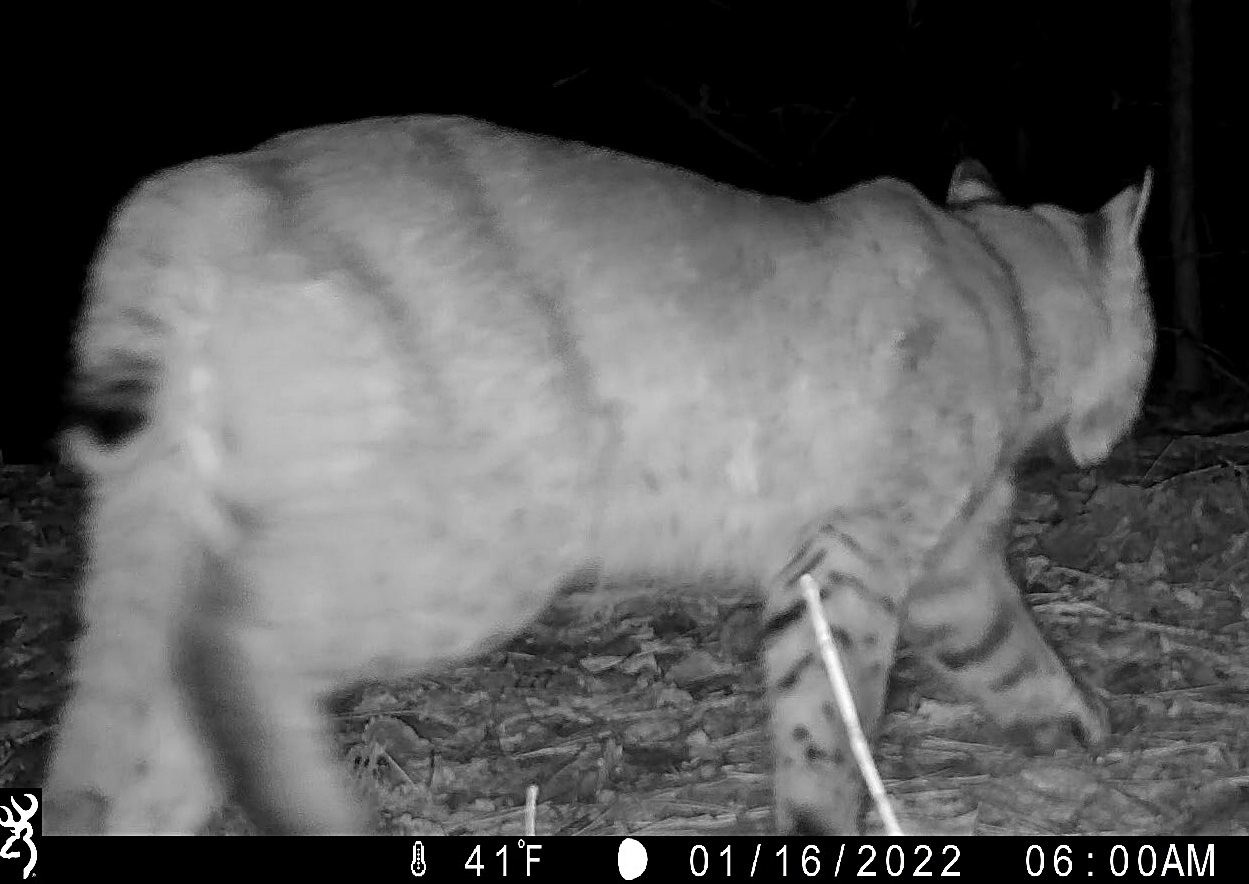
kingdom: Animalia
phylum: Chordata
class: Mammalia
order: Carnivora
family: Felidae
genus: Lynx
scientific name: Lynx rufus
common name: Bobcat
